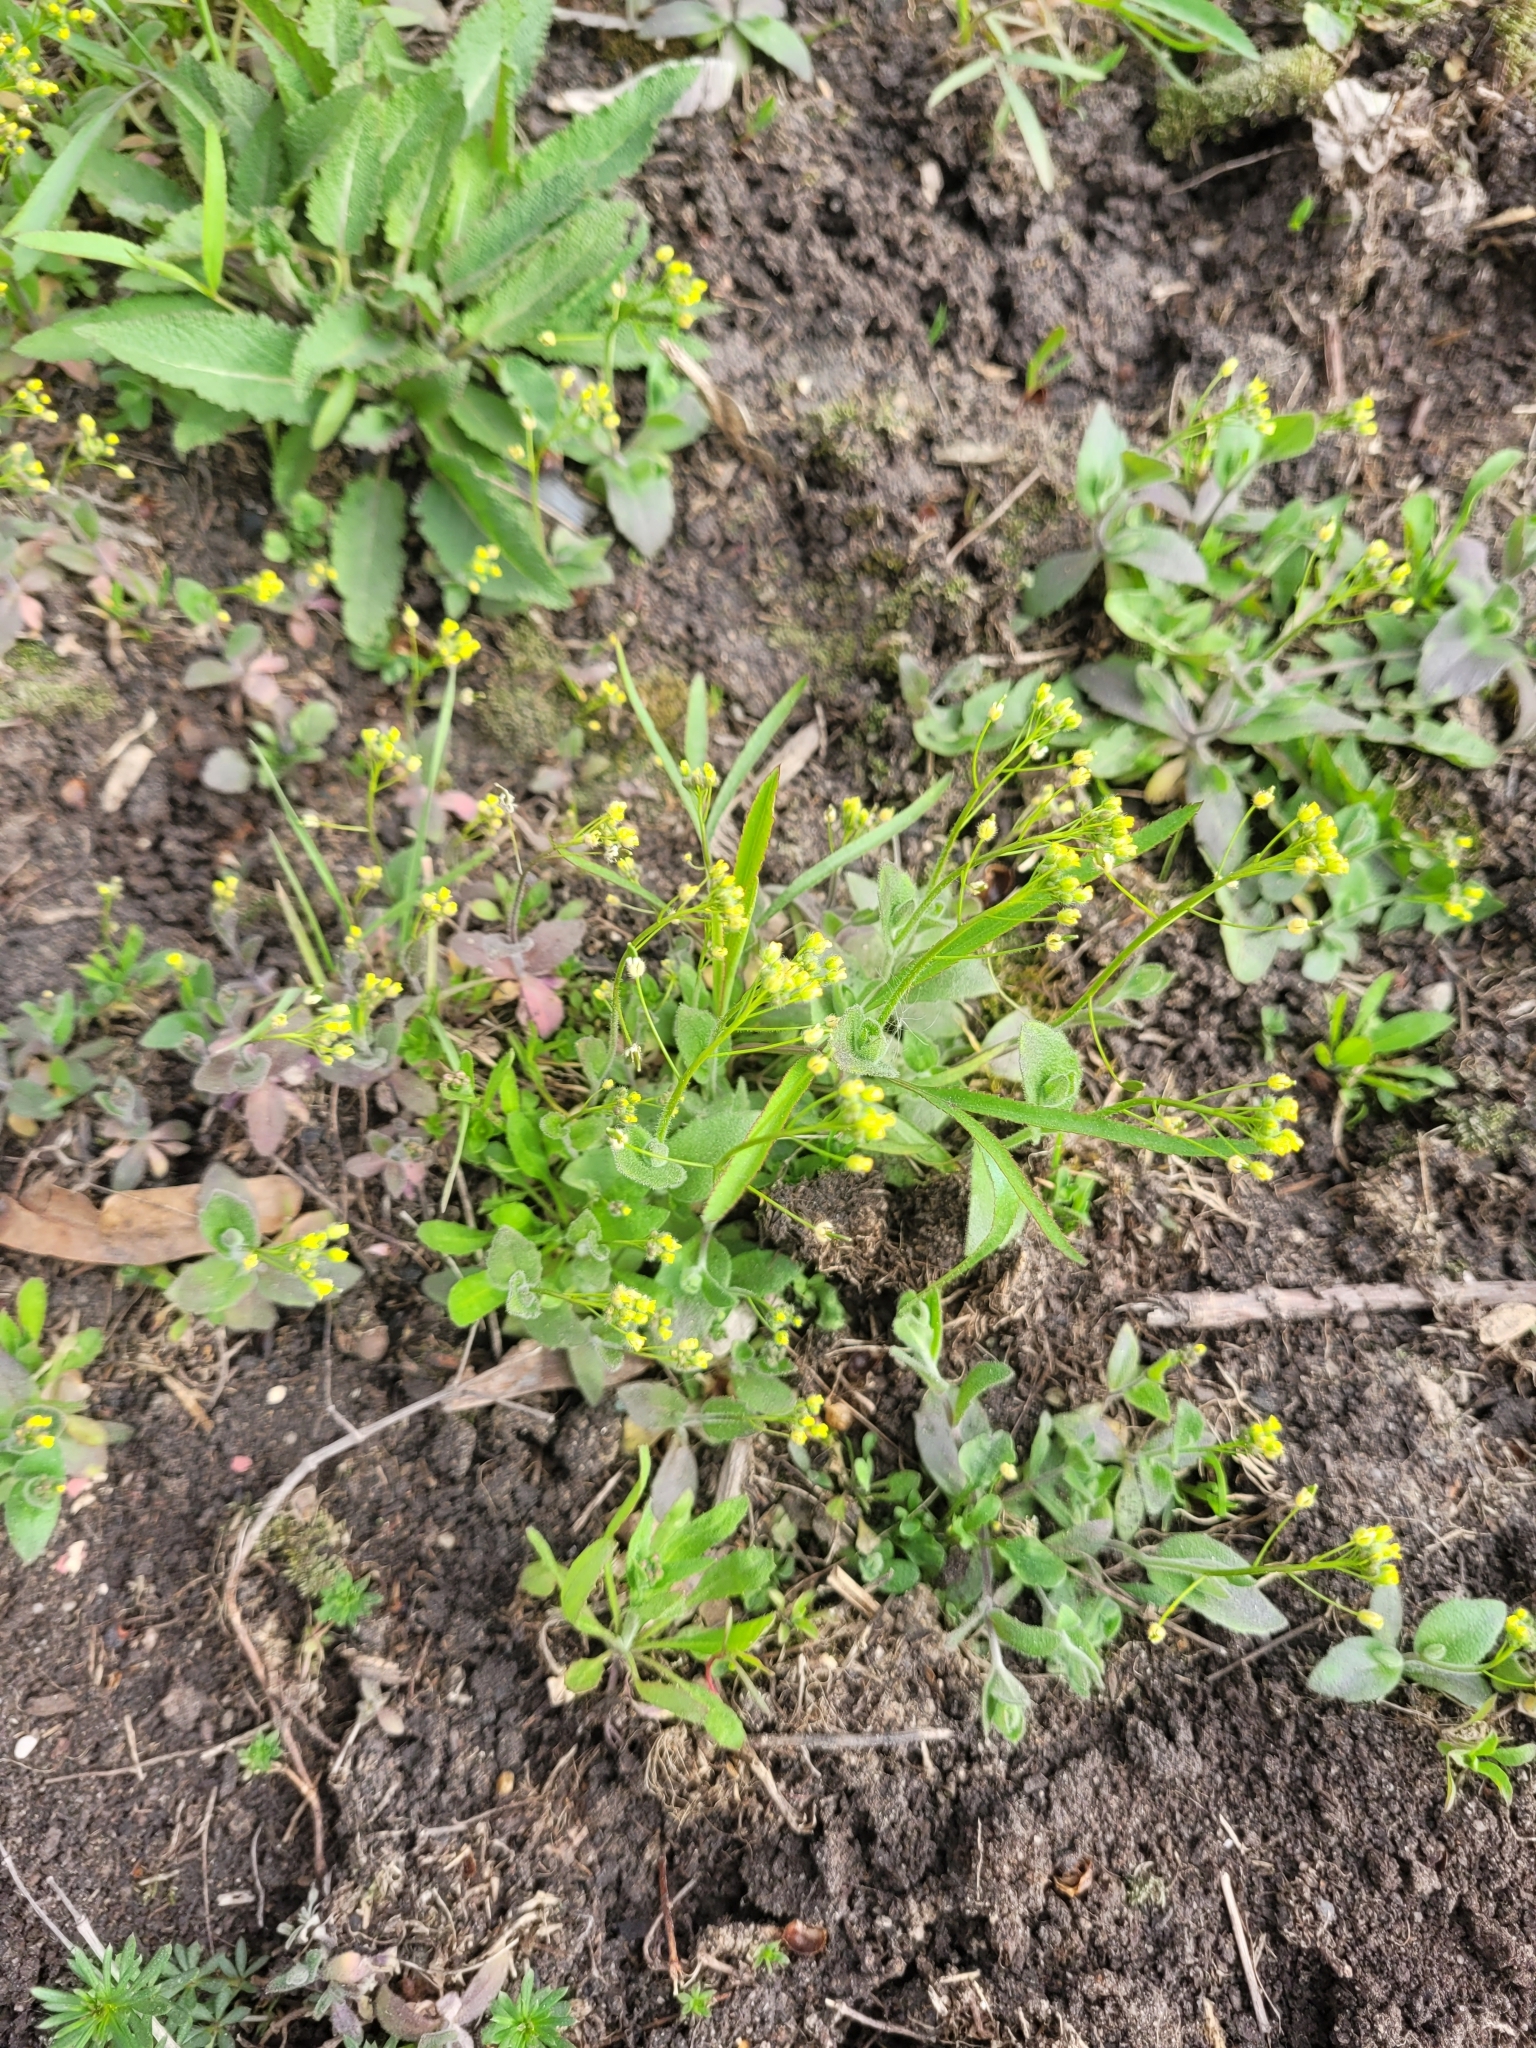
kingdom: Plantae
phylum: Tracheophyta
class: Magnoliopsida
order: Brassicales
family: Brassicaceae
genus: Draba
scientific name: Draba nemorosa
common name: Wood whitlow-grass
